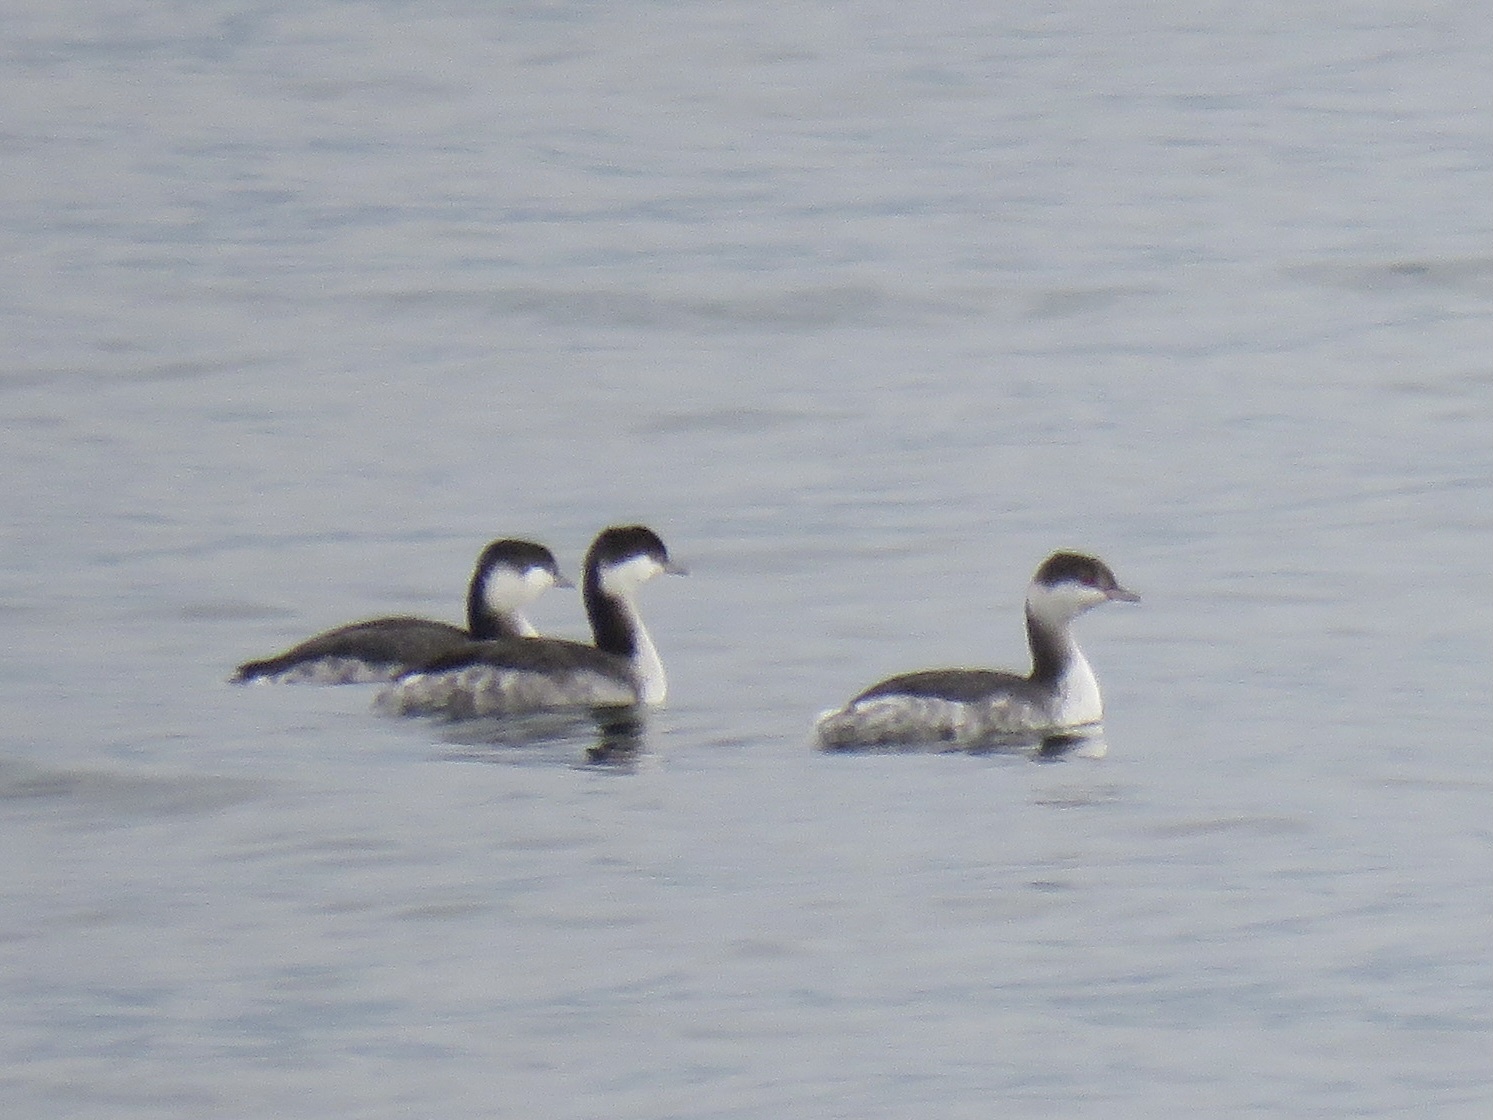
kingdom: Animalia
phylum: Chordata
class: Aves
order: Podicipediformes
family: Podicipedidae
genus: Podiceps
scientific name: Podiceps auritus
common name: Horned grebe
